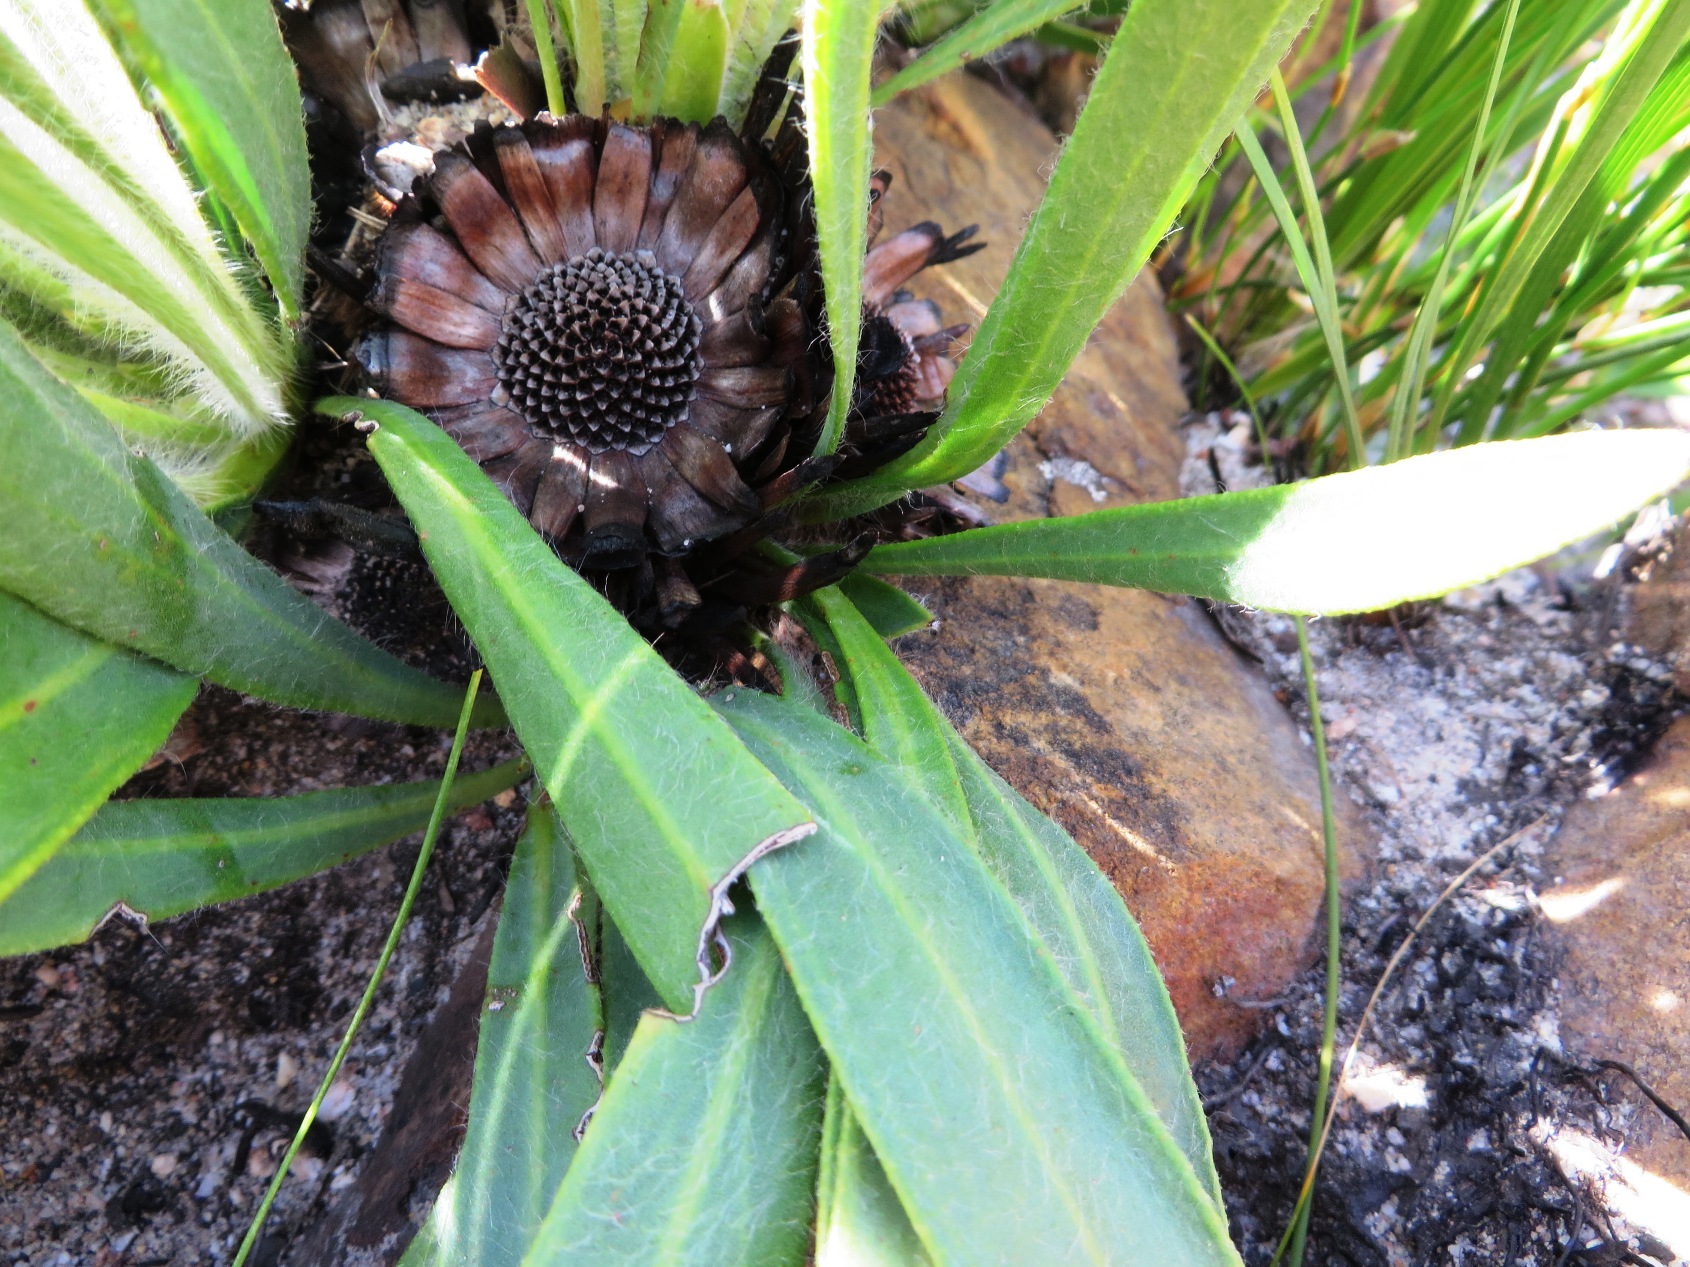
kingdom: Plantae
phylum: Tracheophyta
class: Magnoliopsida
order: Proteales
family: Proteaceae
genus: Protea
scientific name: Protea scabra
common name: Sandpaper-leaf sugarbush
